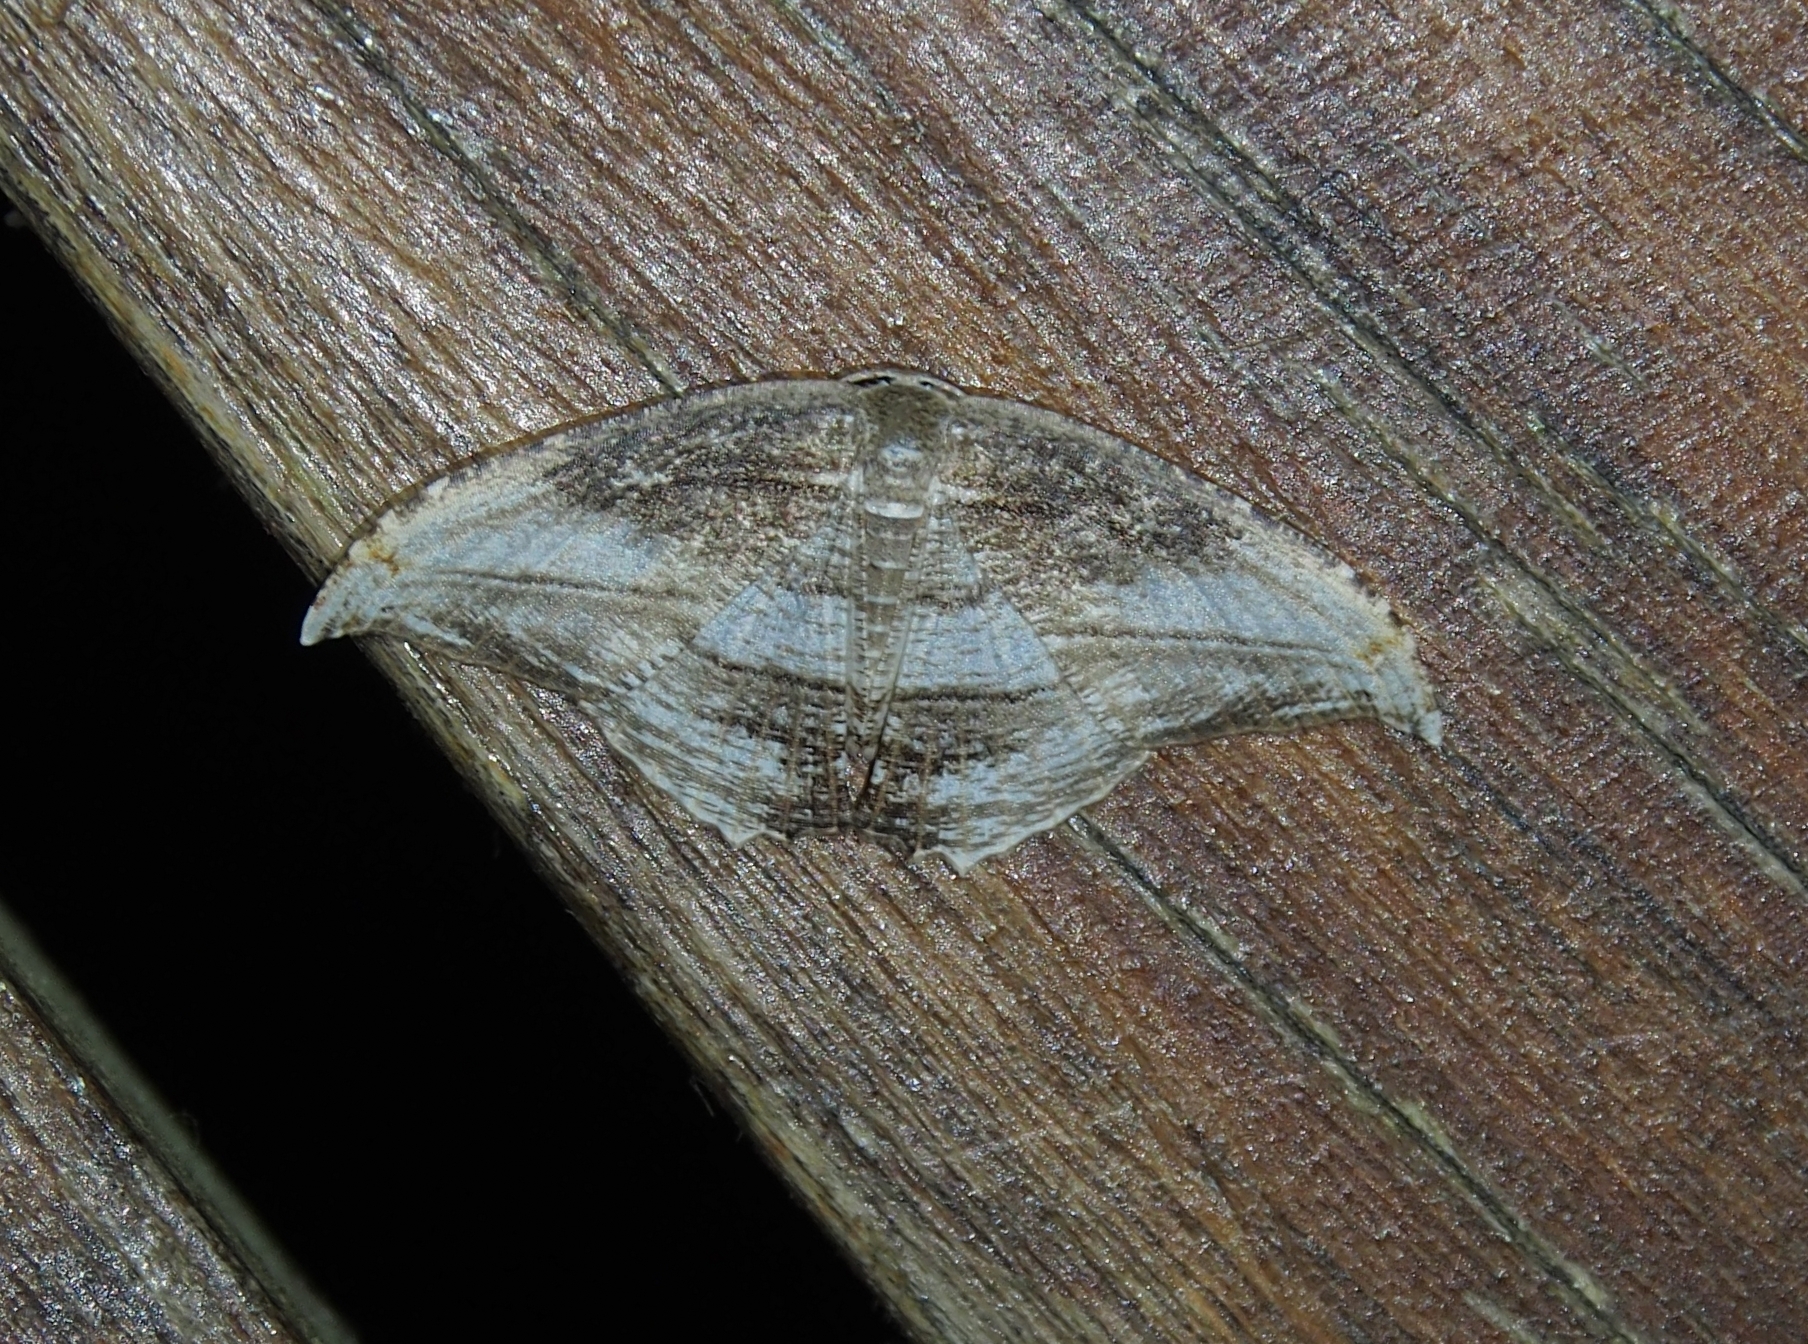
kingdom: Animalia
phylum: Arthropoda
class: Insecta
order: Lepidoptera
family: Uraniidae
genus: Morphomima
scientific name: Morphomima fulvitacta
